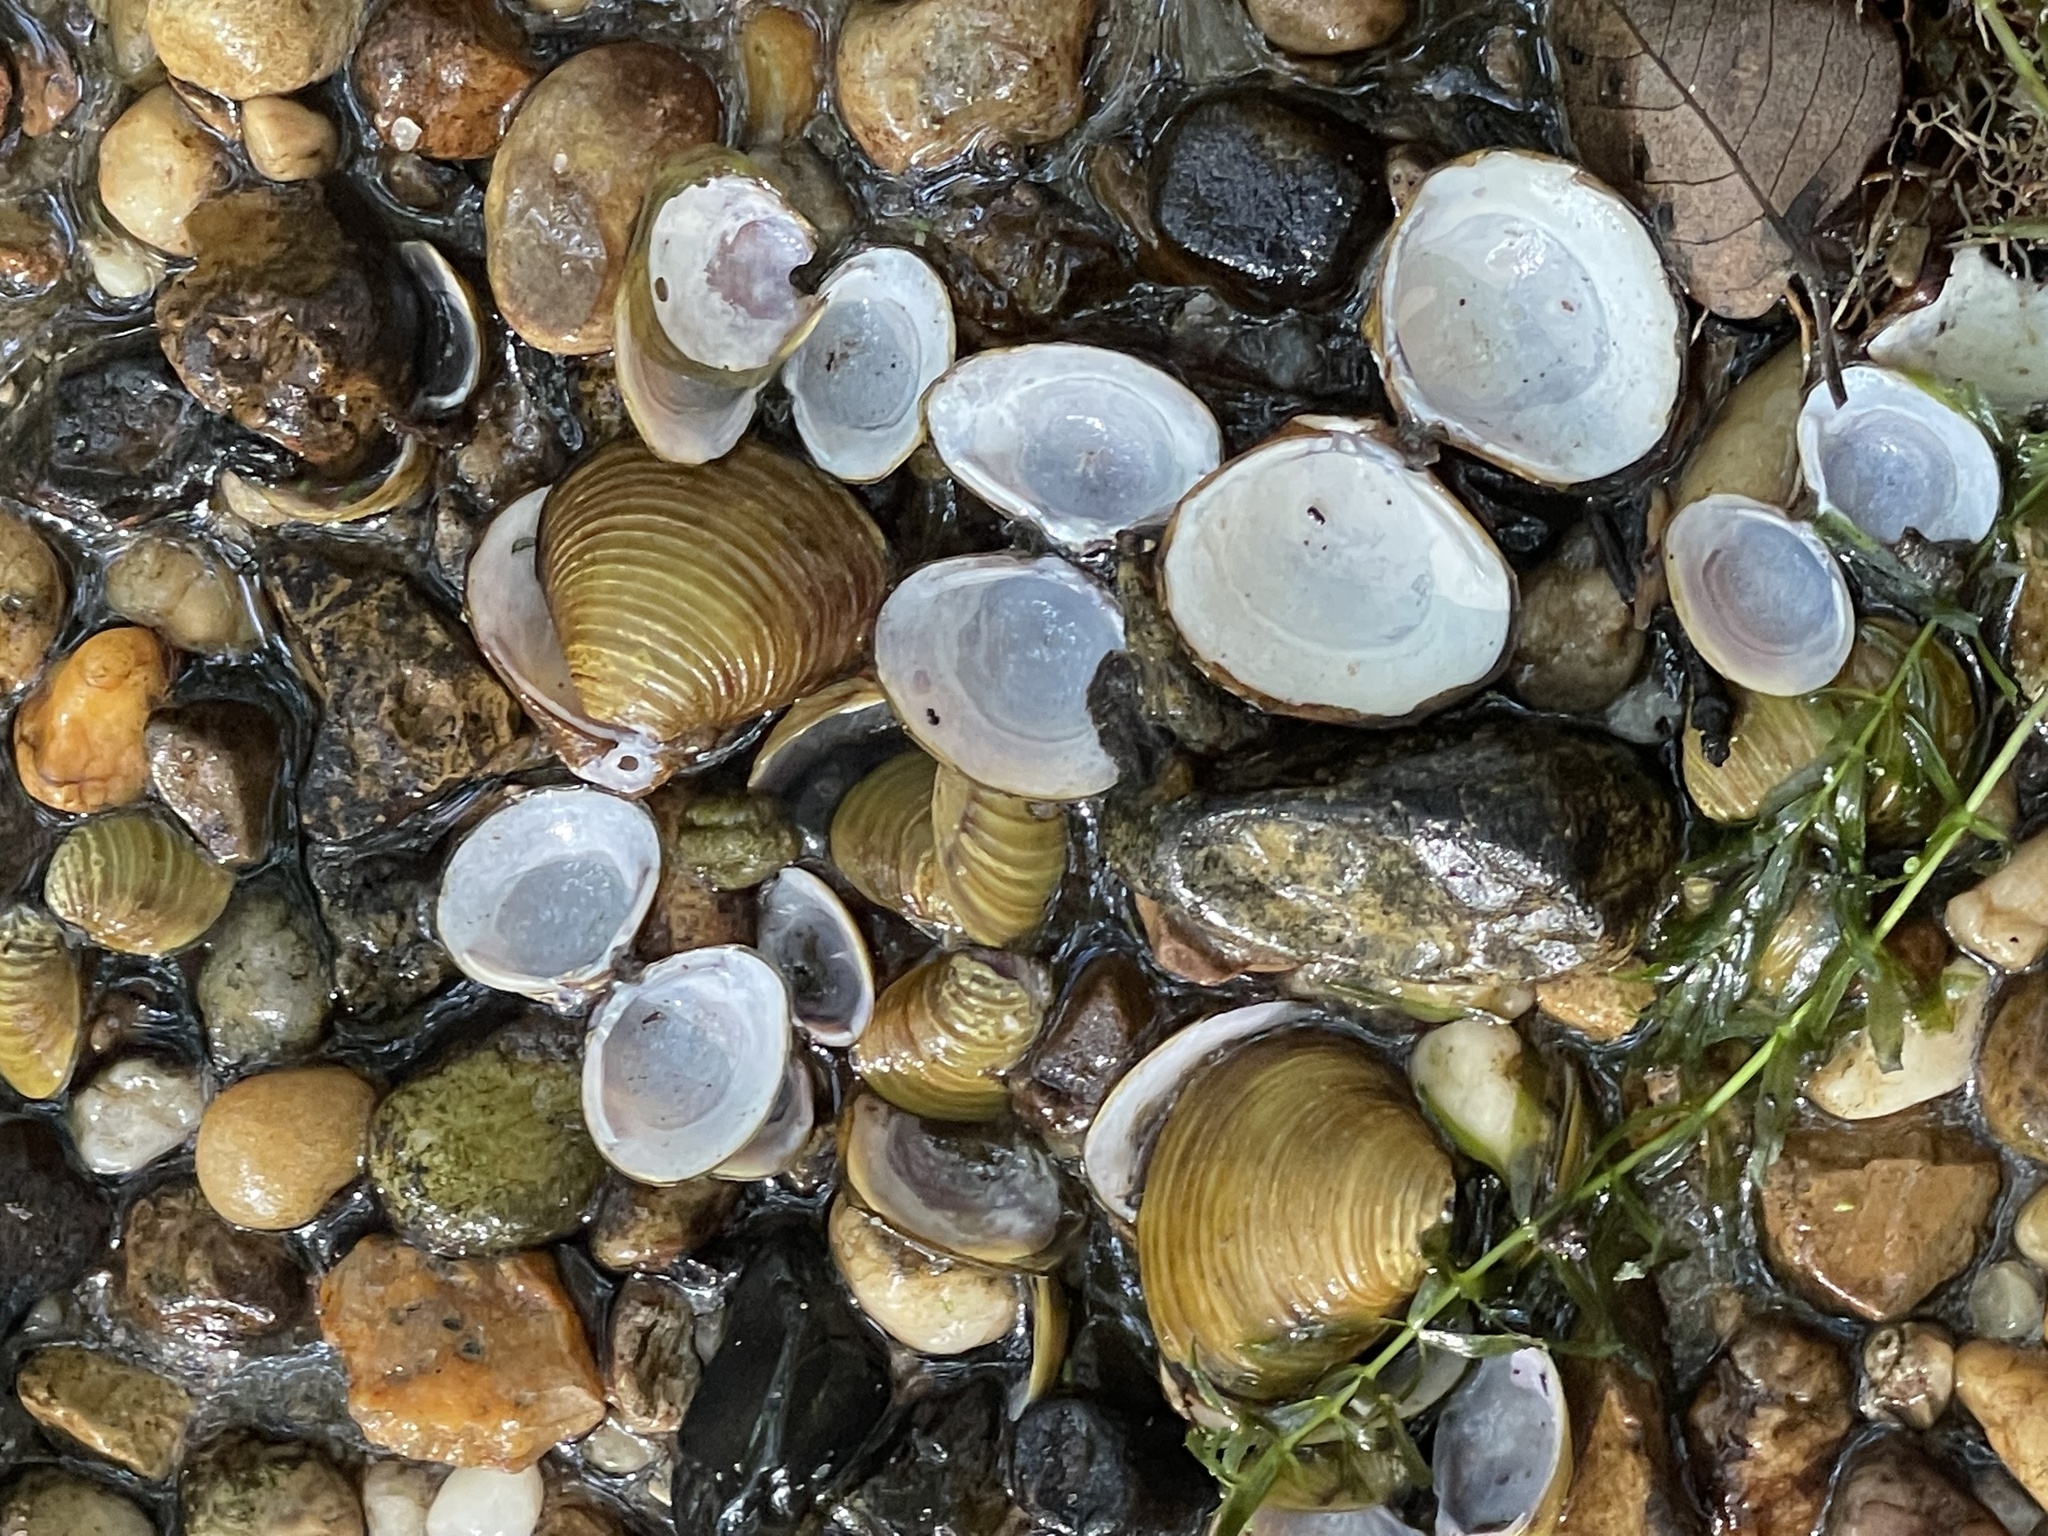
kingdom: Animalia
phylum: Mollusca
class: Bivalvia
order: Venerida
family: Cyrenidae
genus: Corbicula
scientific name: Corbicula fluminea
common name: Asian clam
